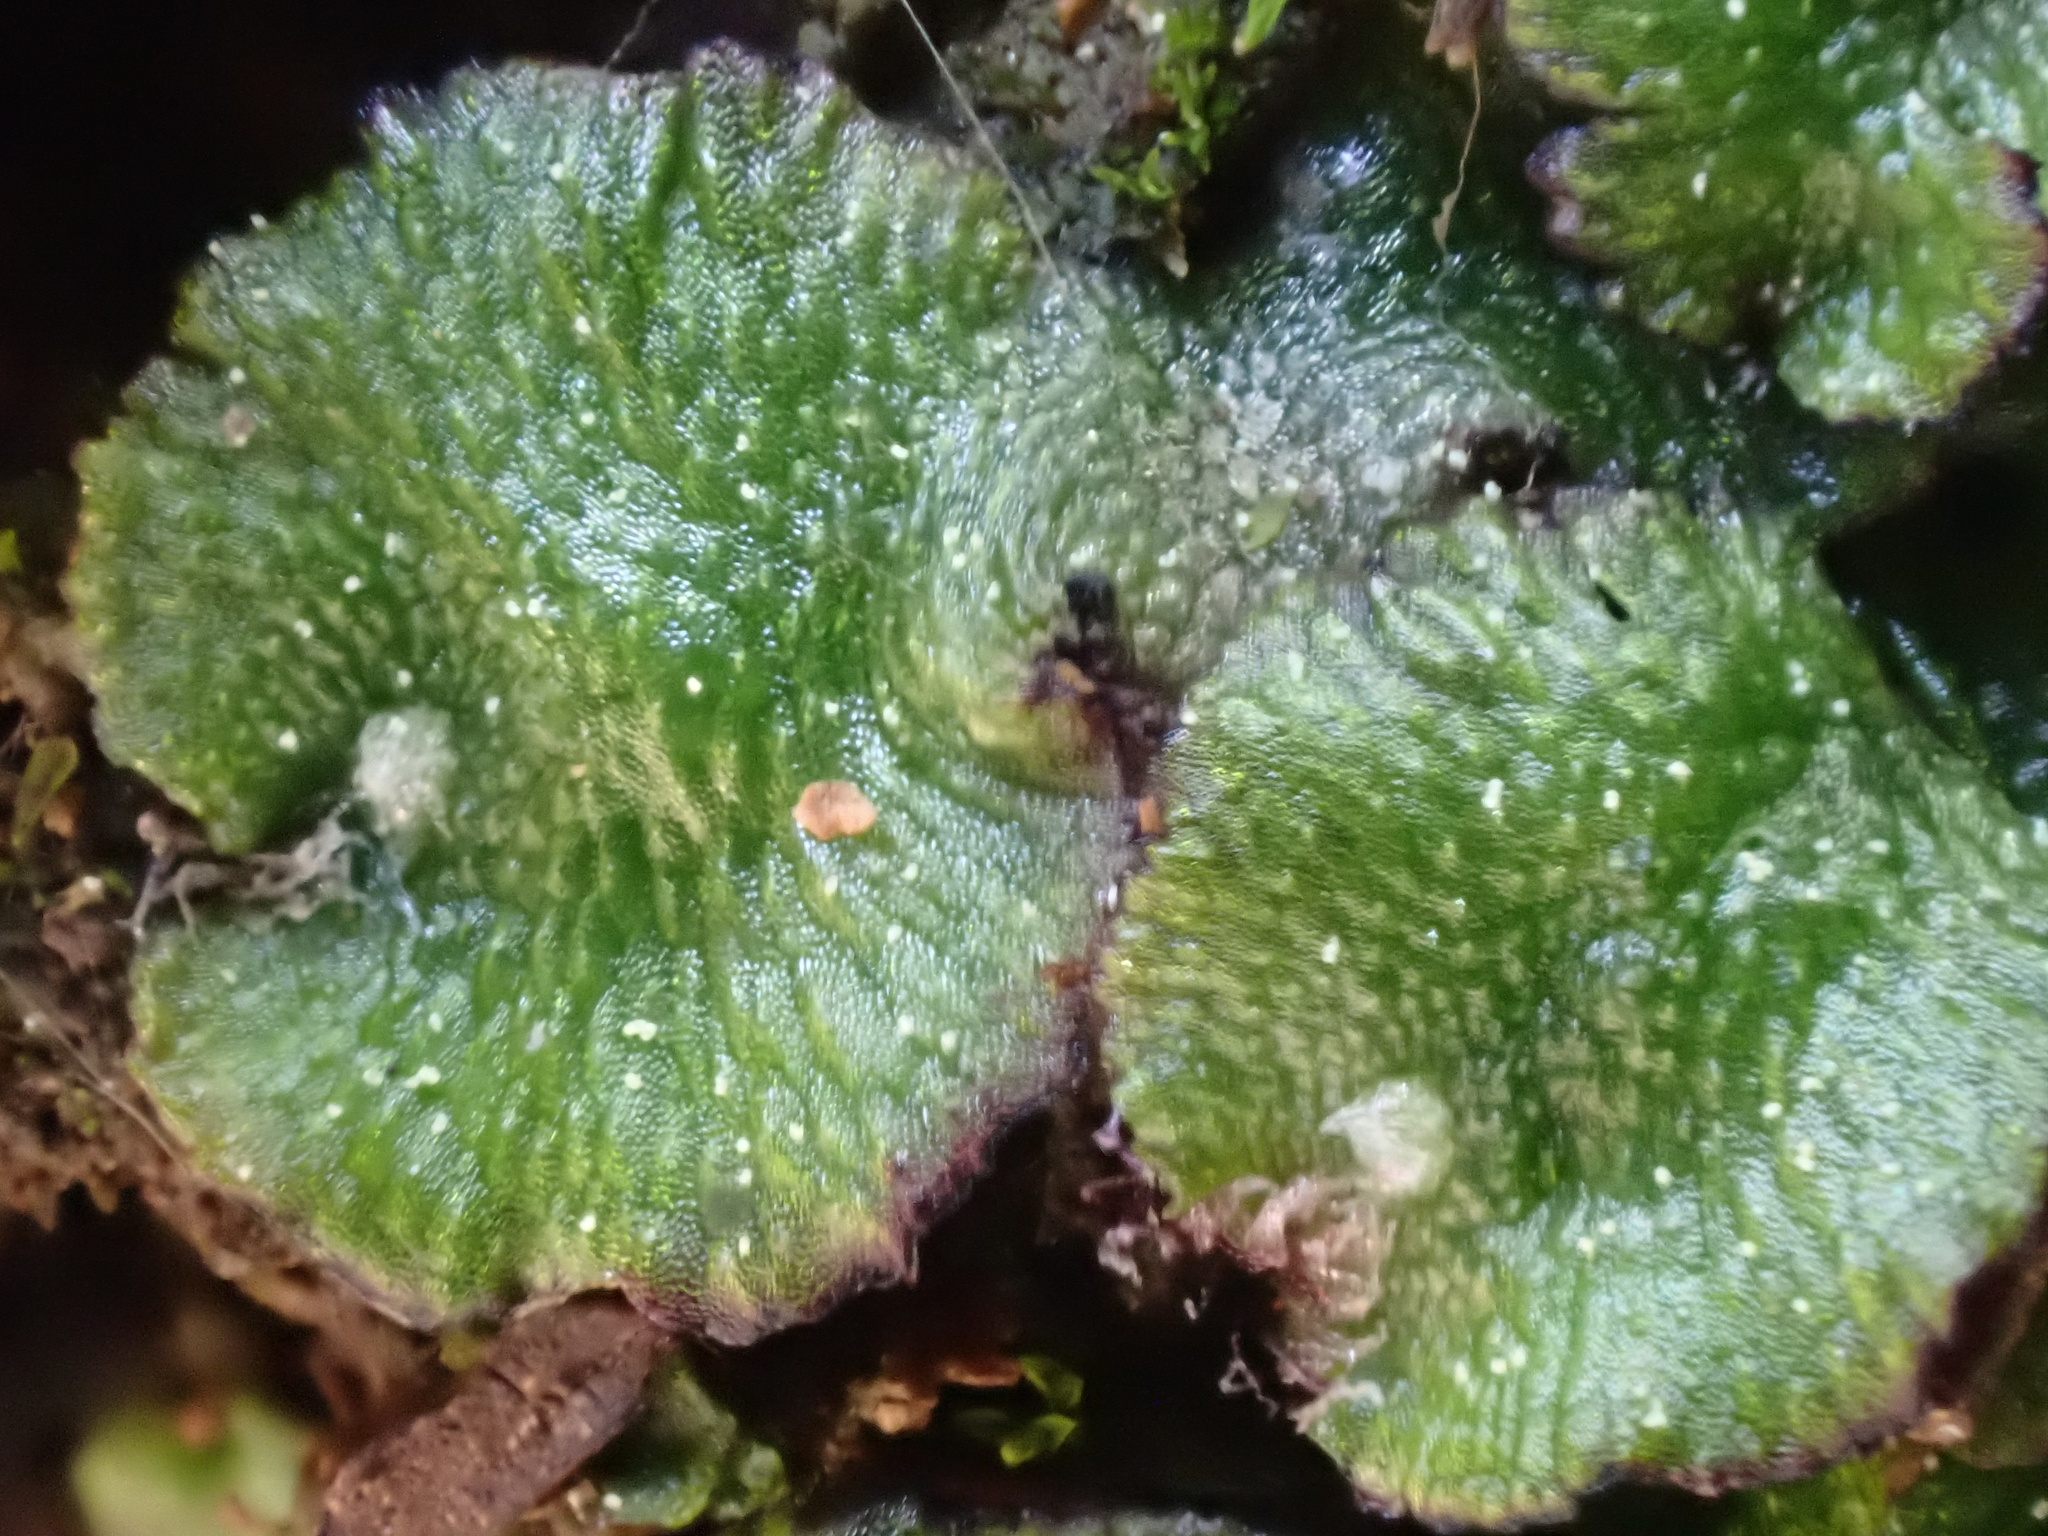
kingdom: Plantae
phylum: Marchantiophyta
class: Marchantiopsida
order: Marchantiales
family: Cleveaceae
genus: Clevea
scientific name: Clevea spathysii
